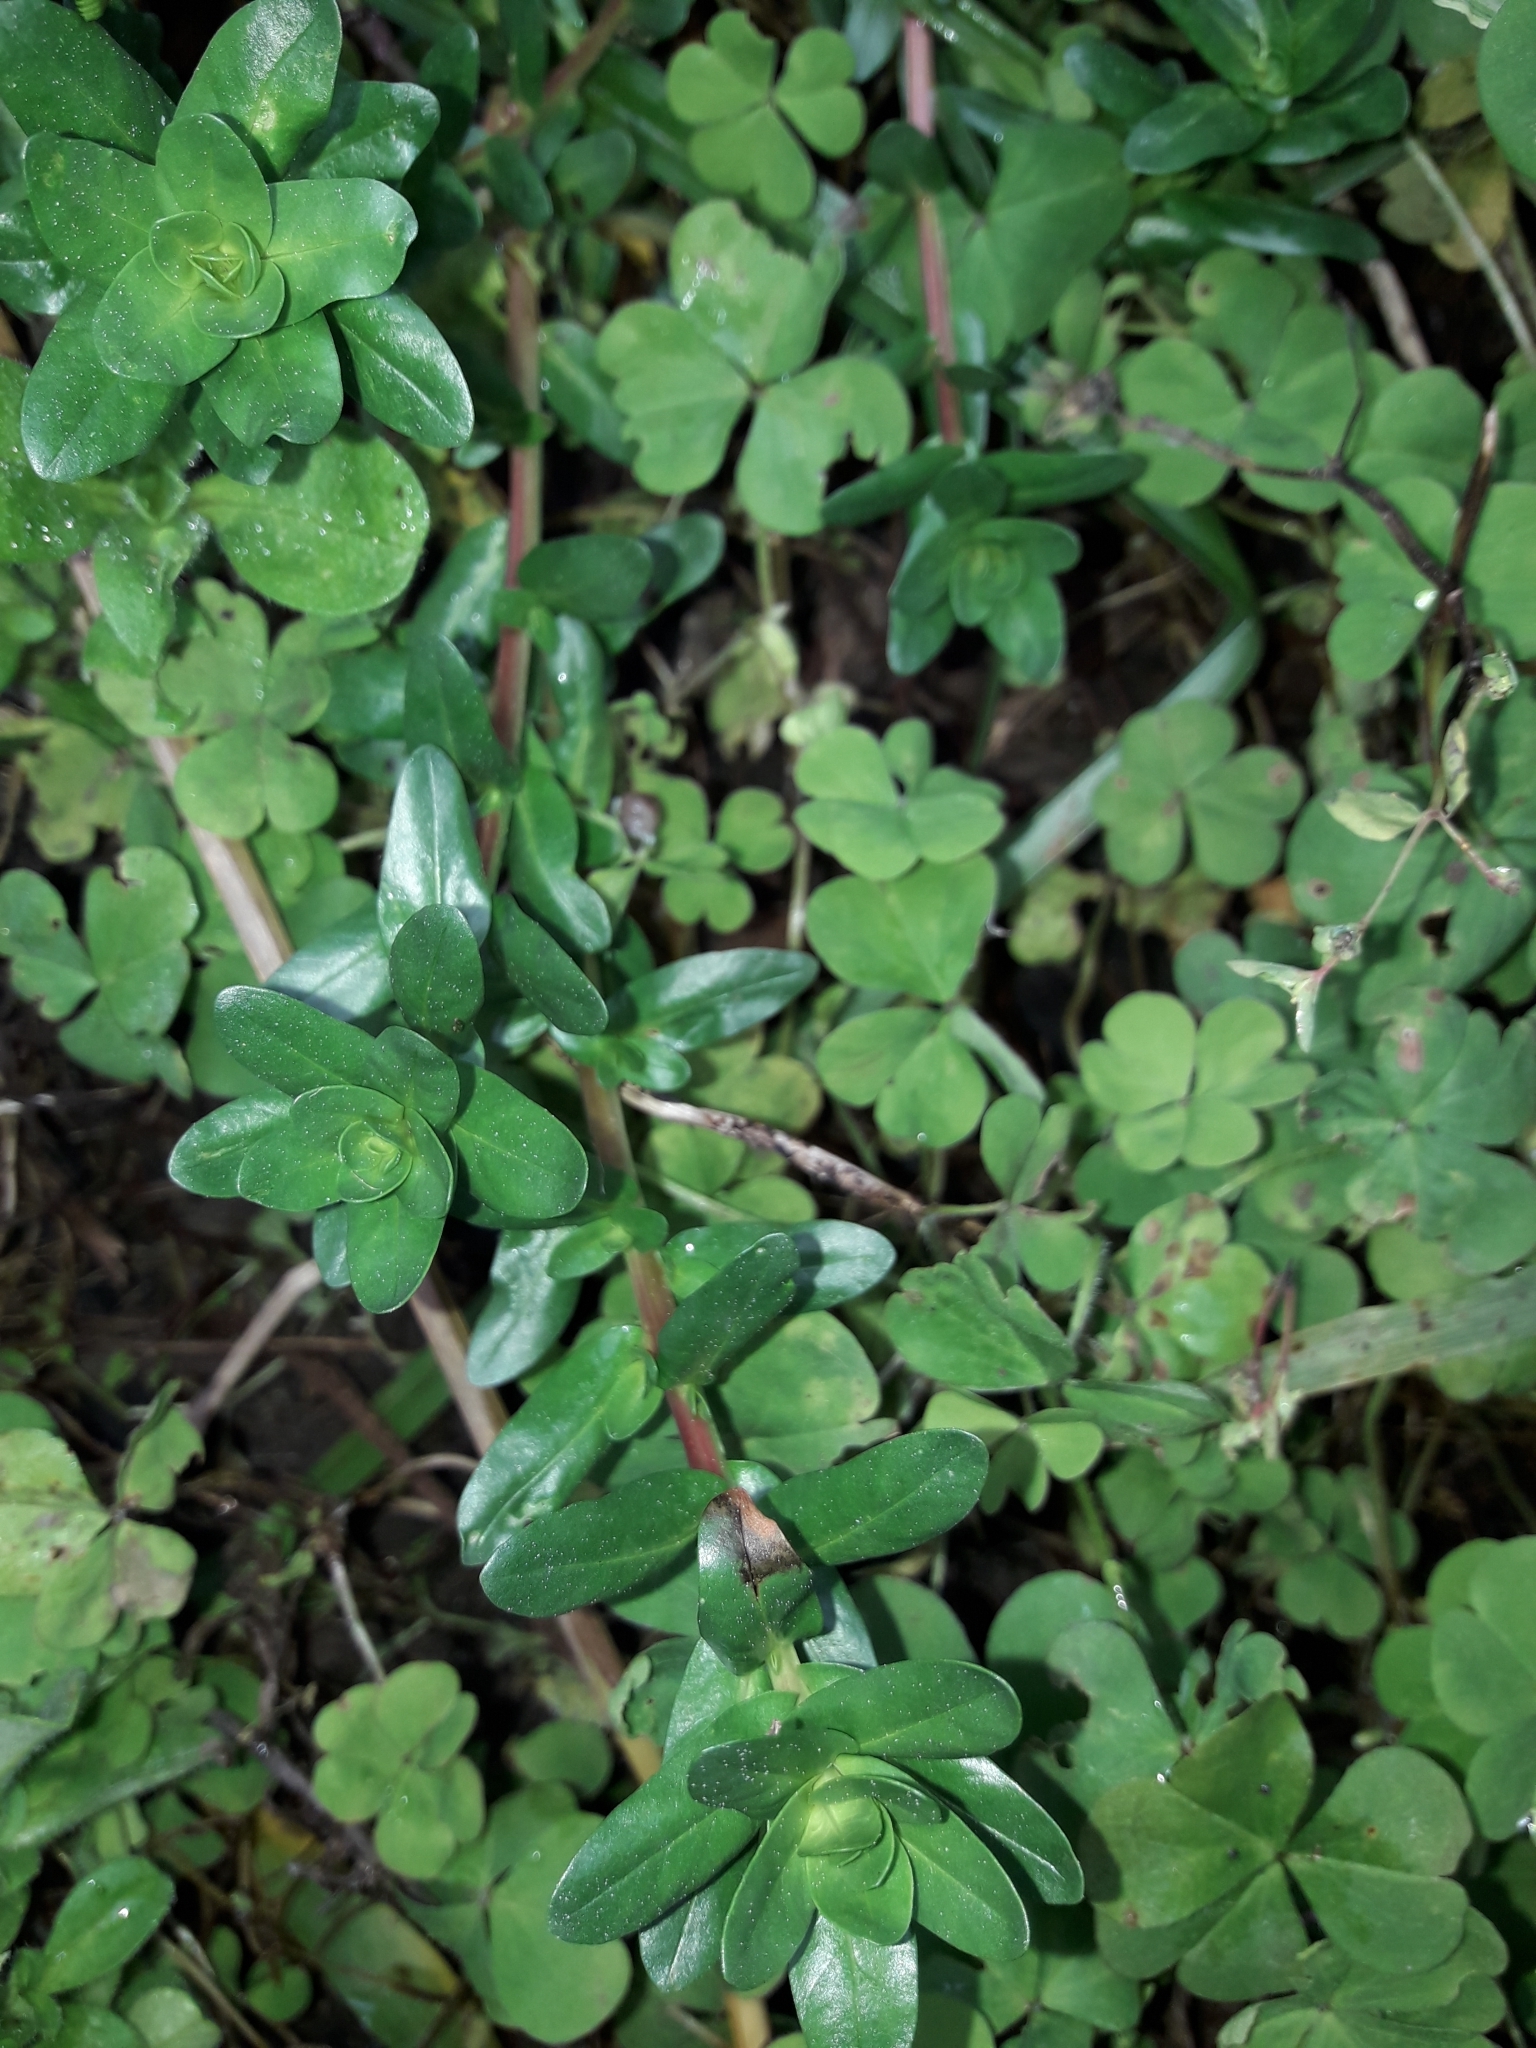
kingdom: Plantae
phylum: Tracheophyta
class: Magnoliopsida
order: Caryophyllales
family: Portulacaceae
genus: Portulaca
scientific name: Portulaca oleracea
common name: Common purslane
